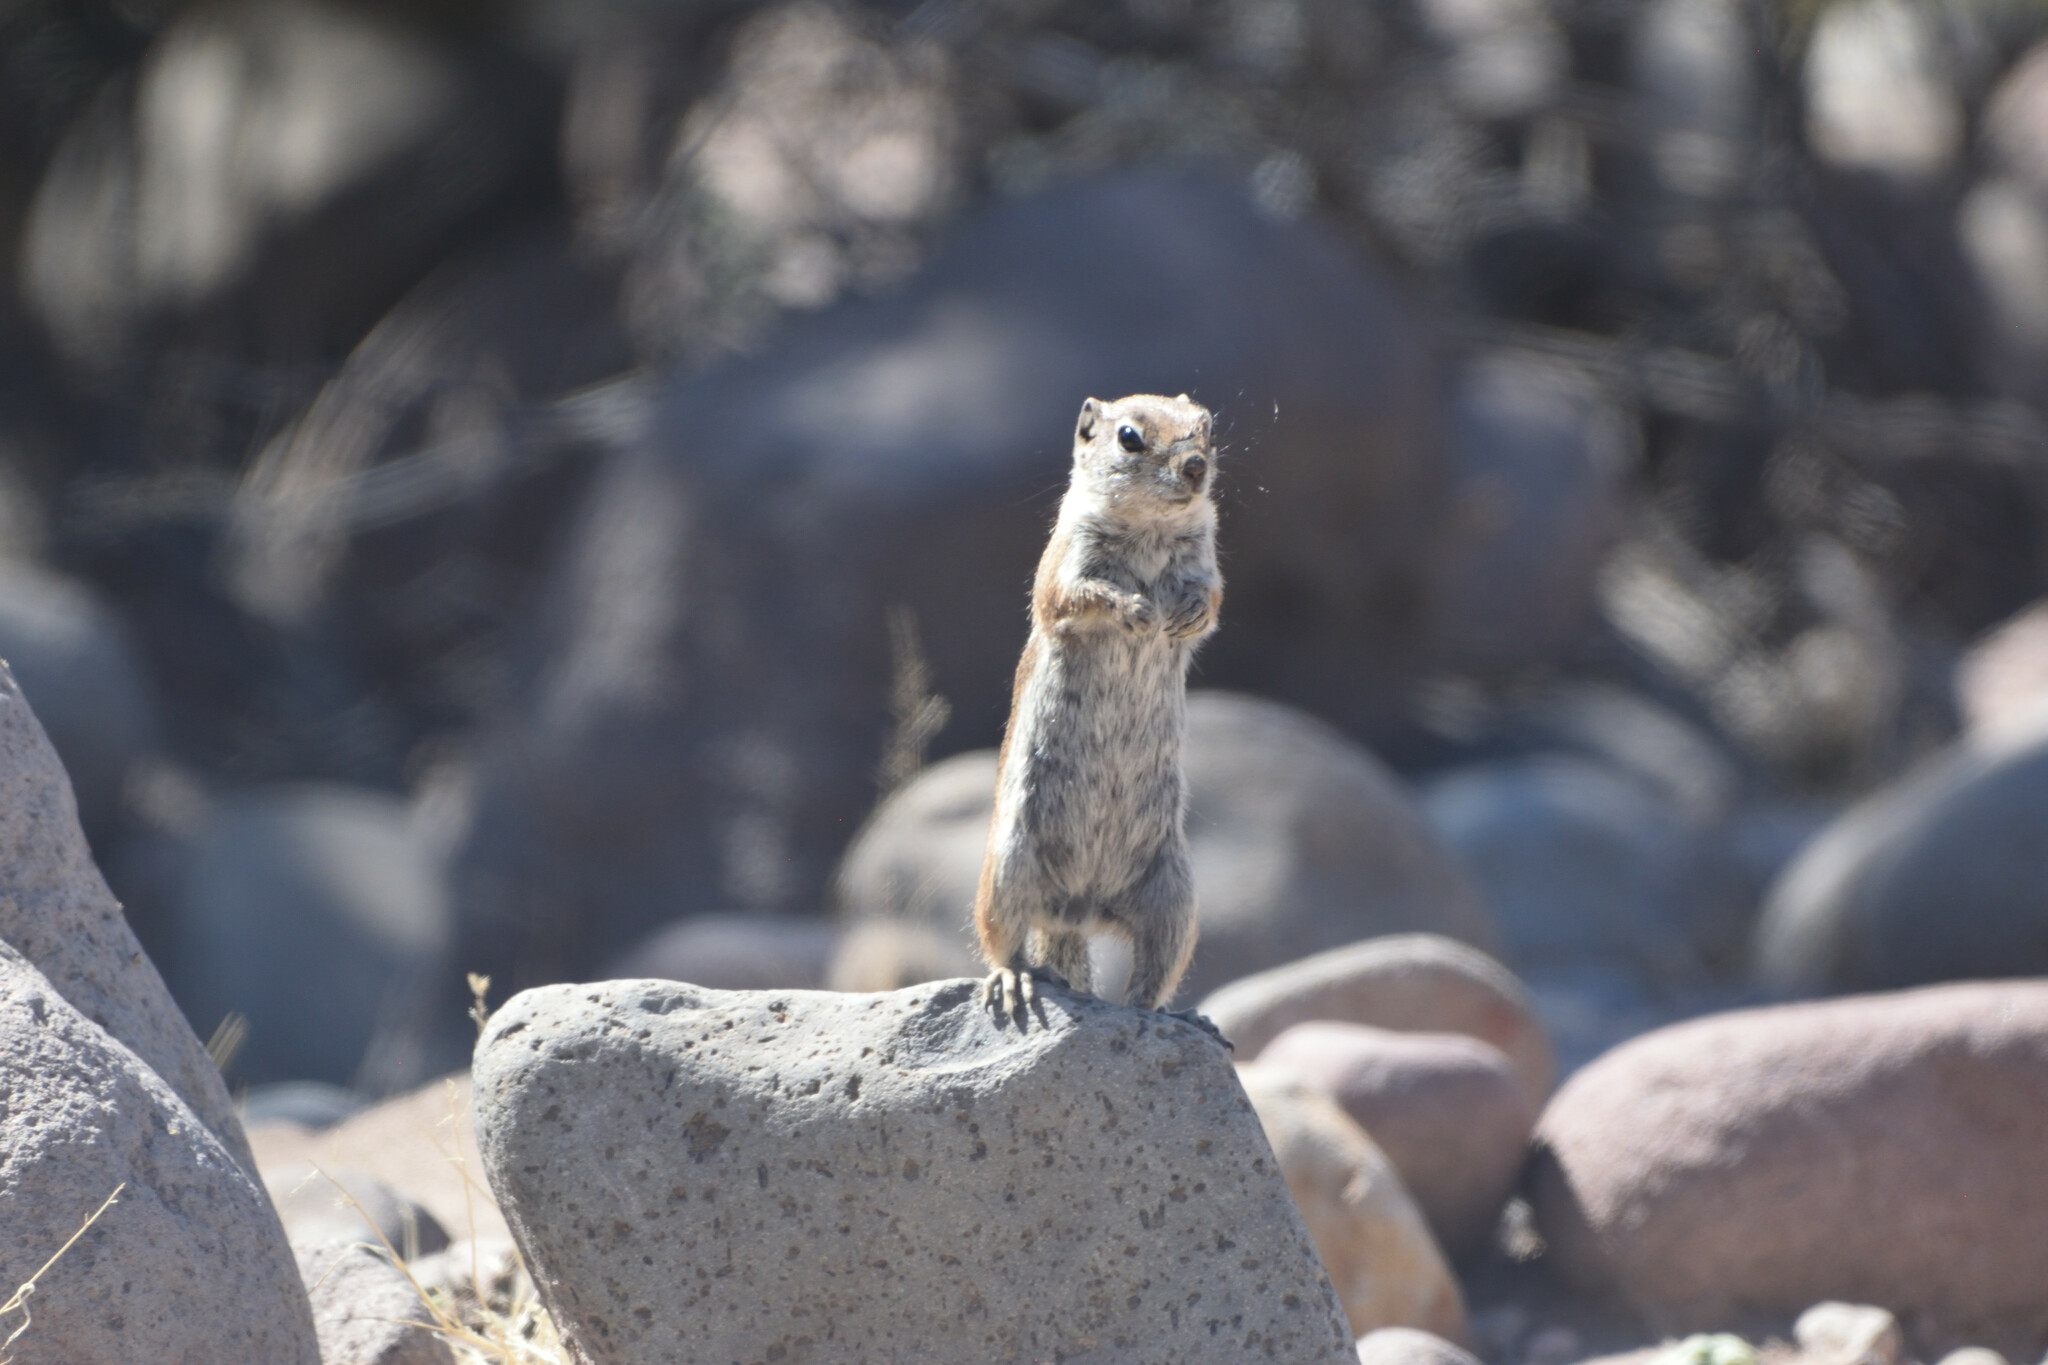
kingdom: Animalia
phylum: Chordata
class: Mammalia
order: Rodentia
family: Sciuridae
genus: Ammospermophilus
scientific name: Ammospermophilus leucurus
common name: White-tailed antelope squirrel
